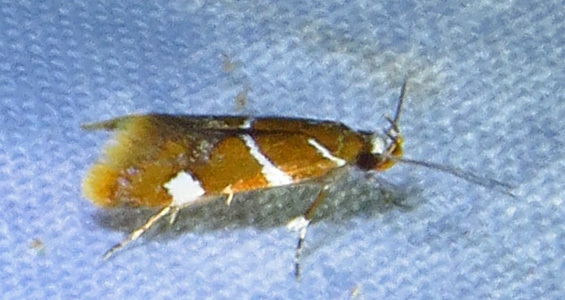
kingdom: Animalia
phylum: Arthropoda
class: Insecta
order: Lepidoptera
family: Oecophoridae
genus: Promalactis
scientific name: Promalactis suzukiella
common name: Moth
